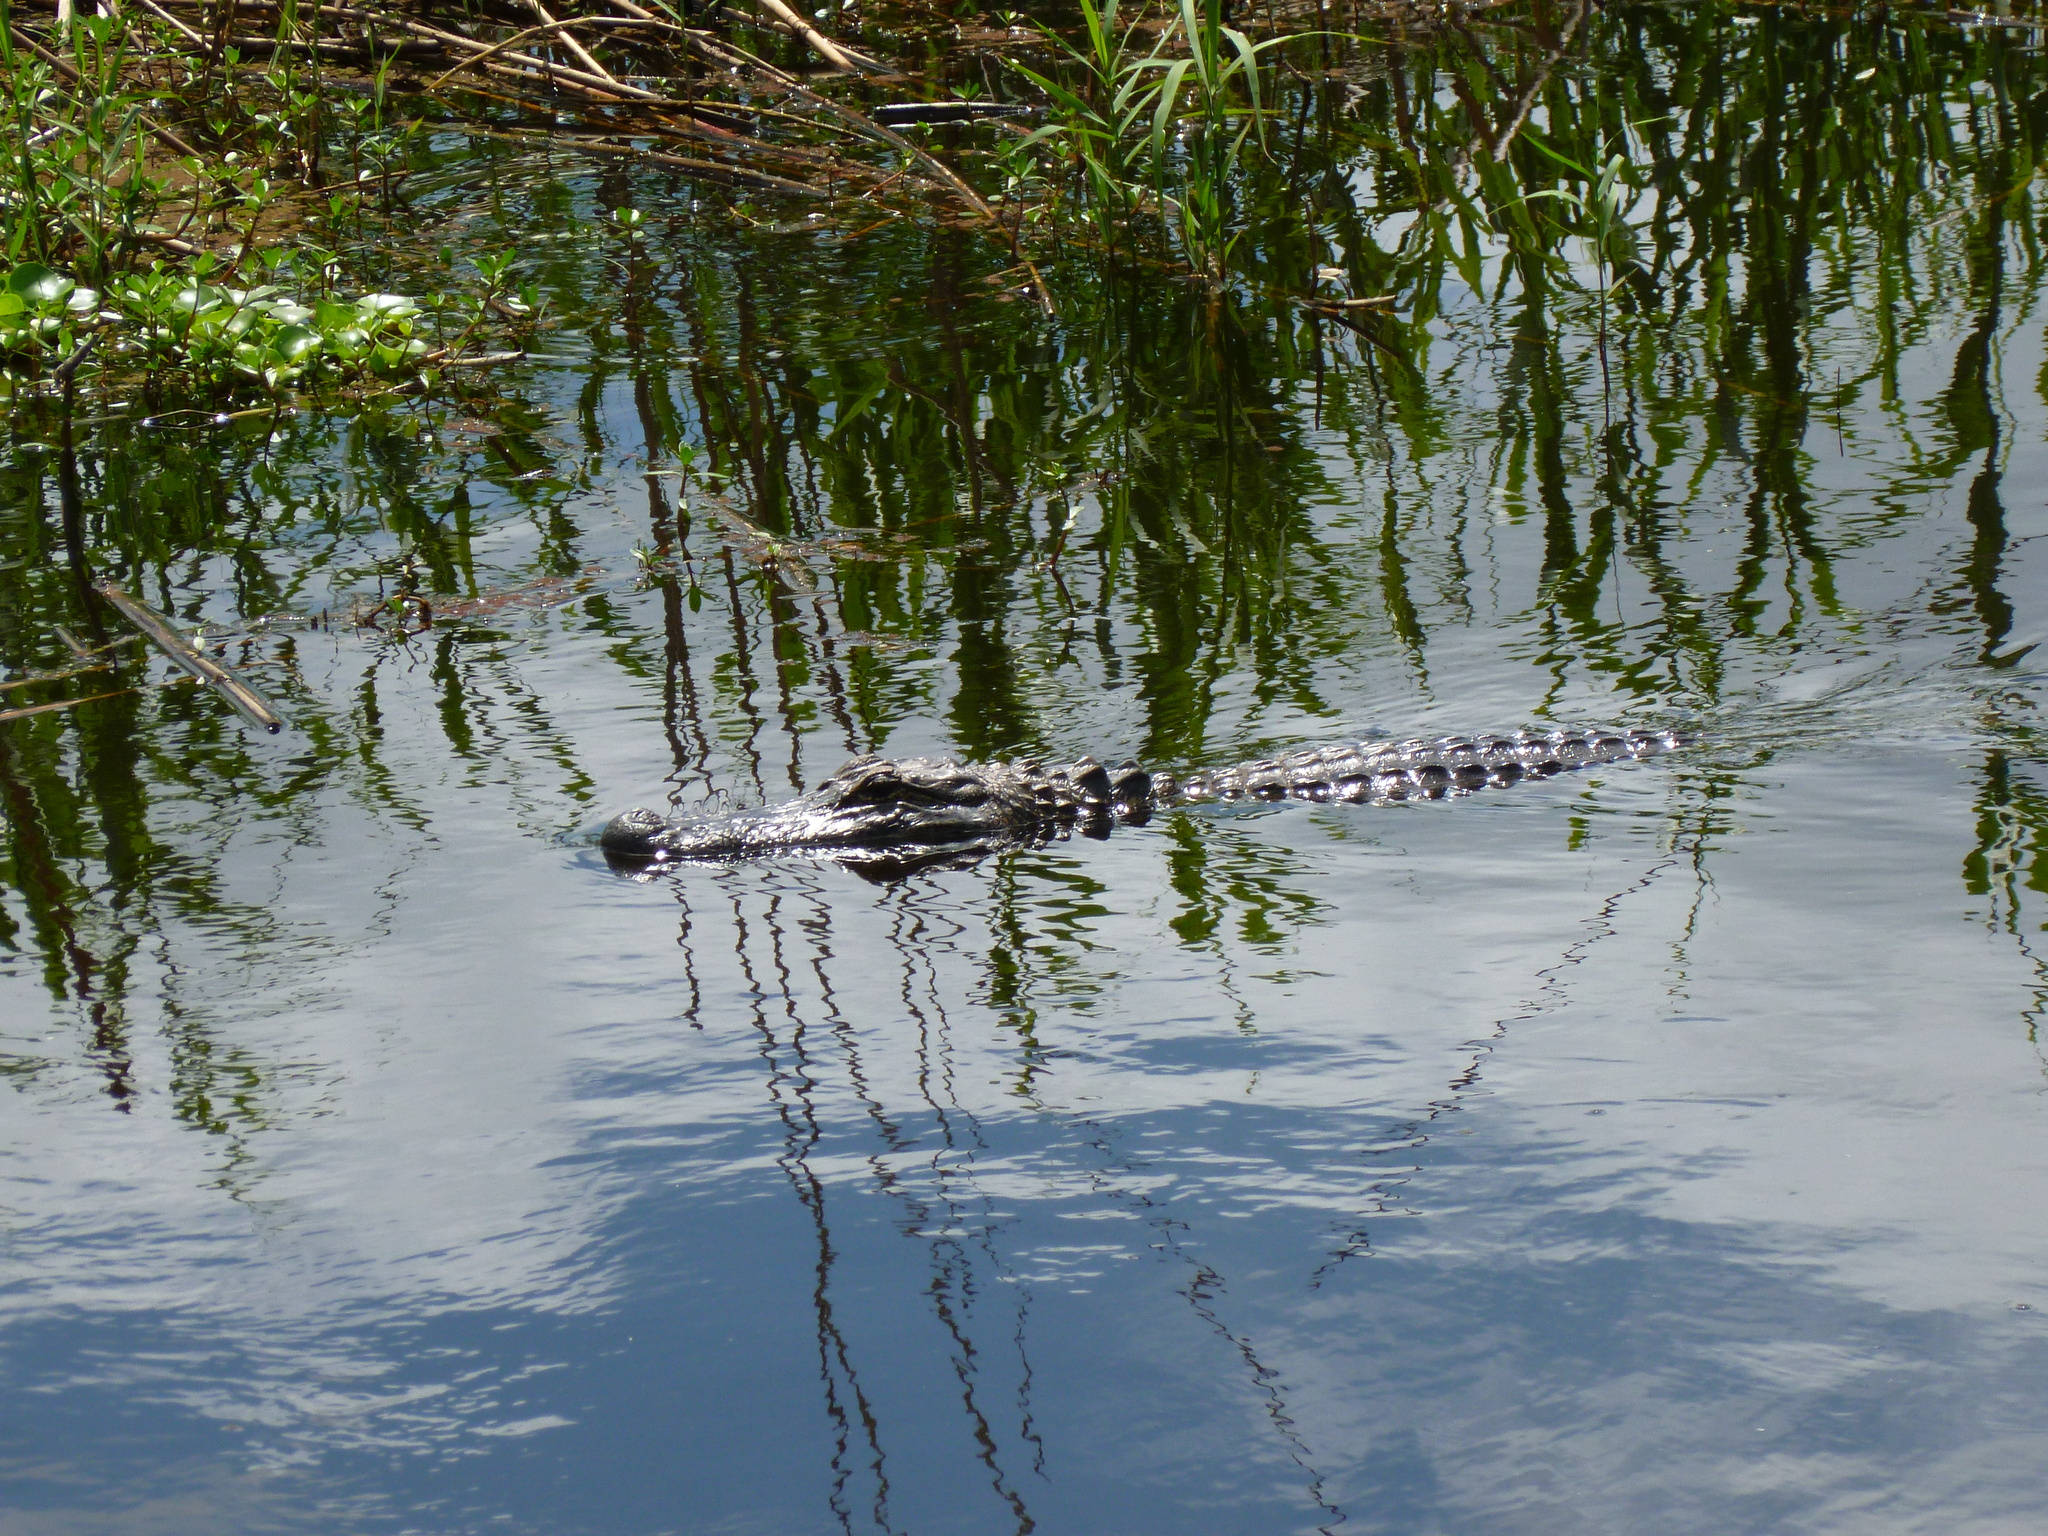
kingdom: Animalia
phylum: Chordata
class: Crocodylia
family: Alligatoridae
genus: Alligator
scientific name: Alligator mississippiensis
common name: American alligator
